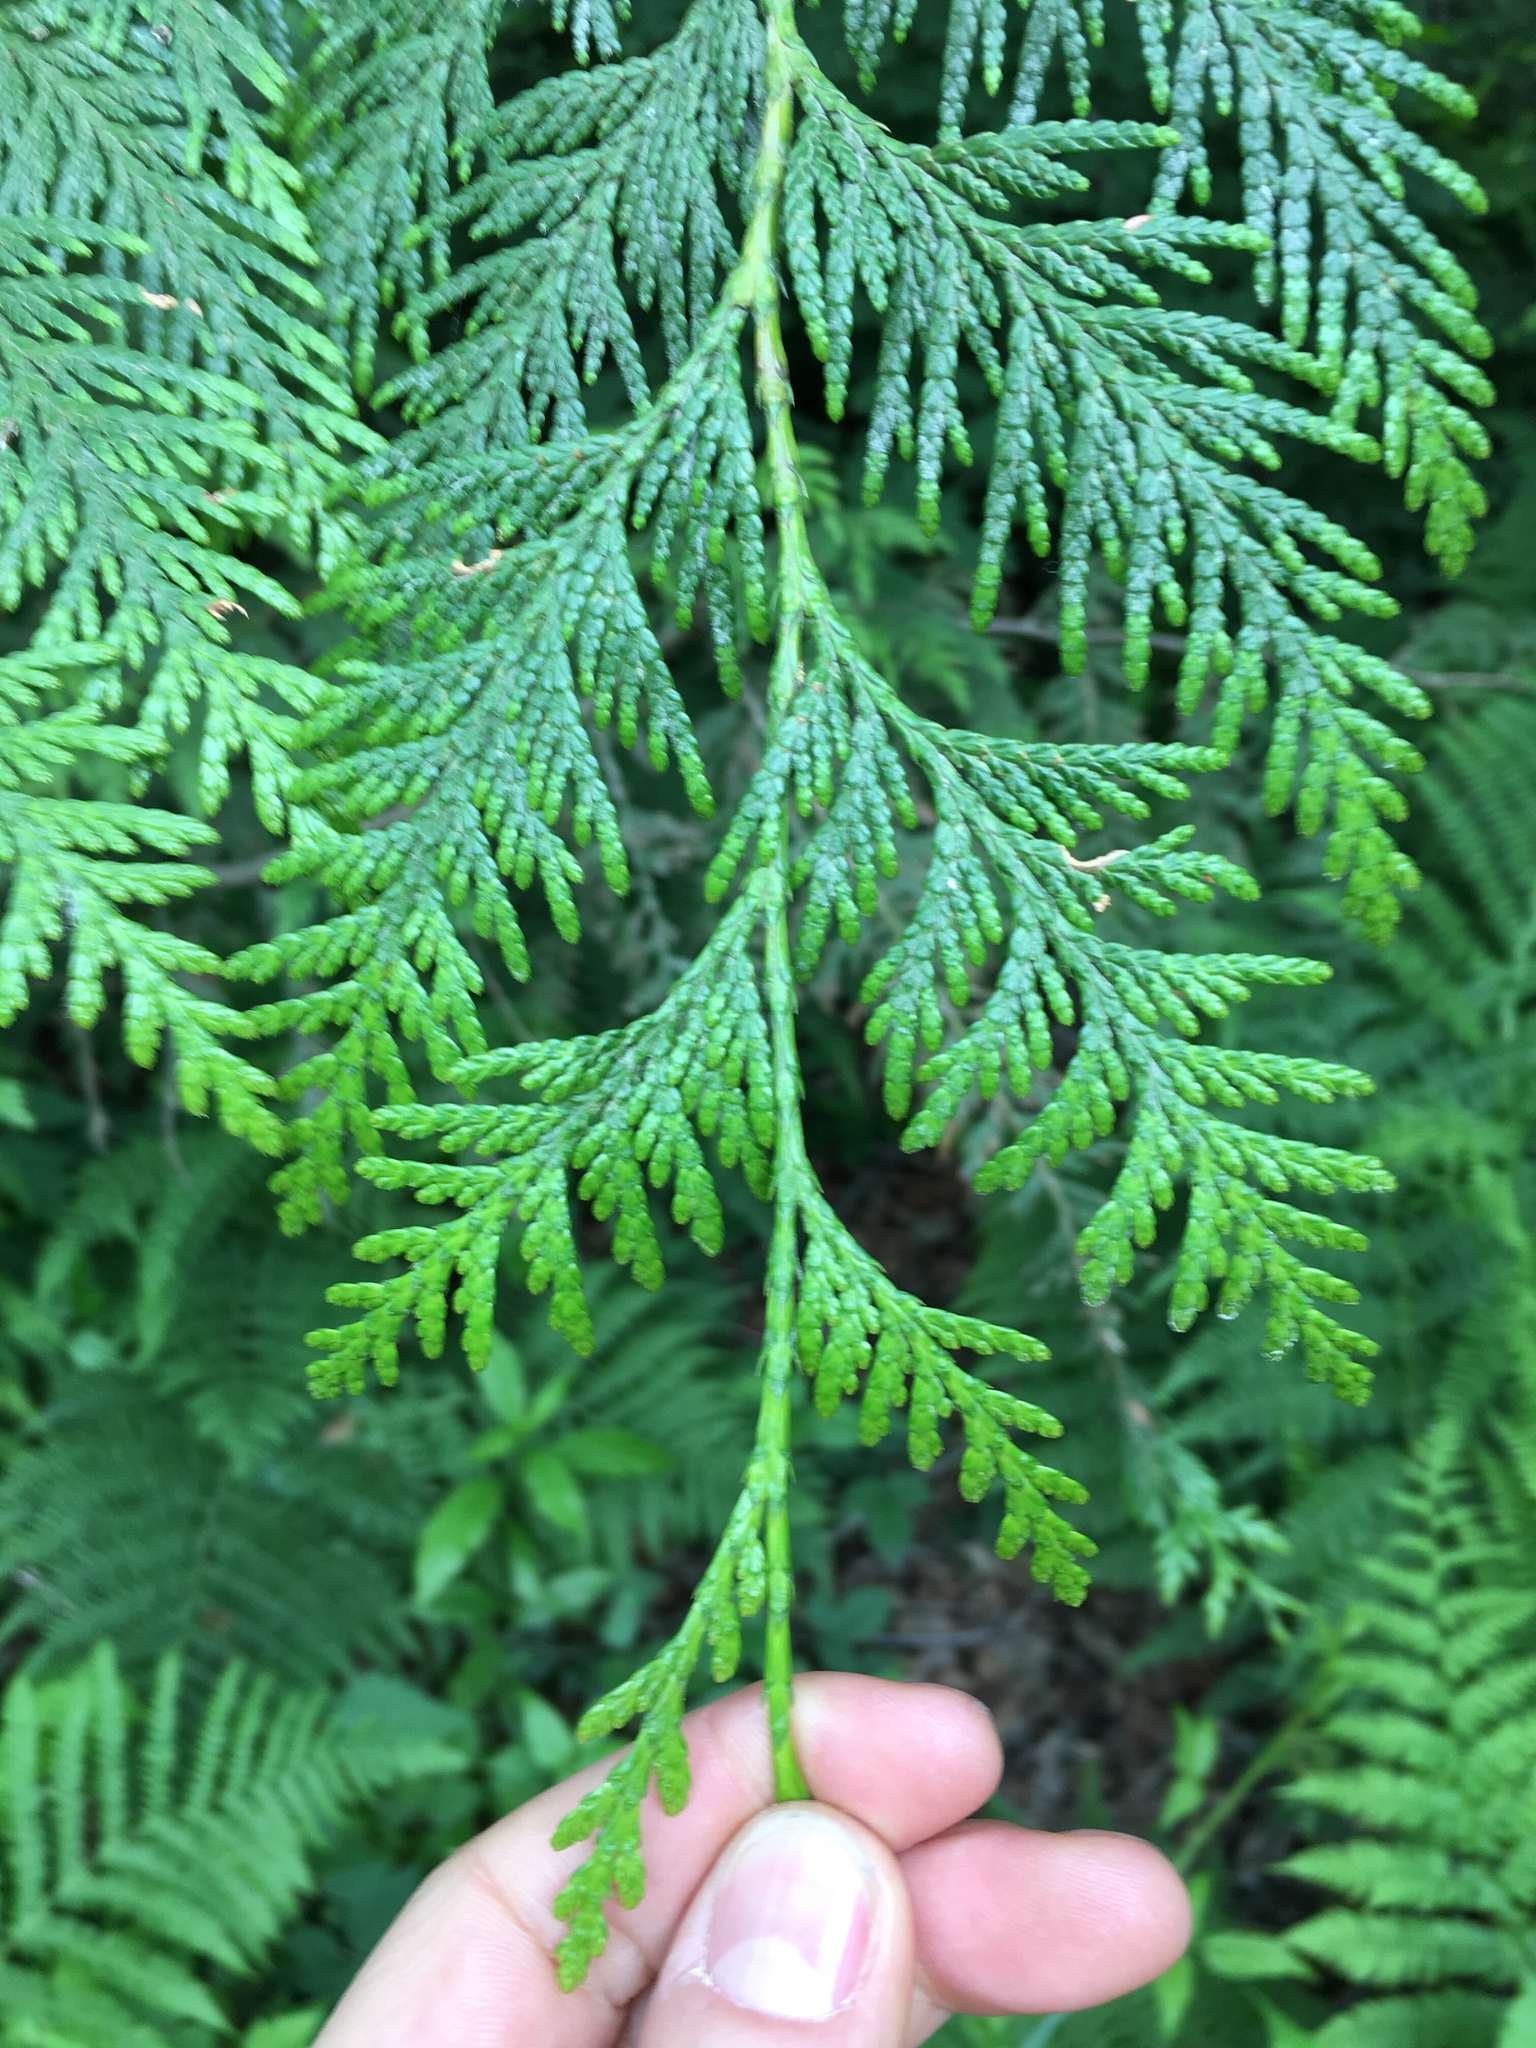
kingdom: Plantae
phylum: Tracheophyta
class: Pinopsida
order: Pinales
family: Cupressaceae
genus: Thuja
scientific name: Thuja plicata
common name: Western red-cedar
